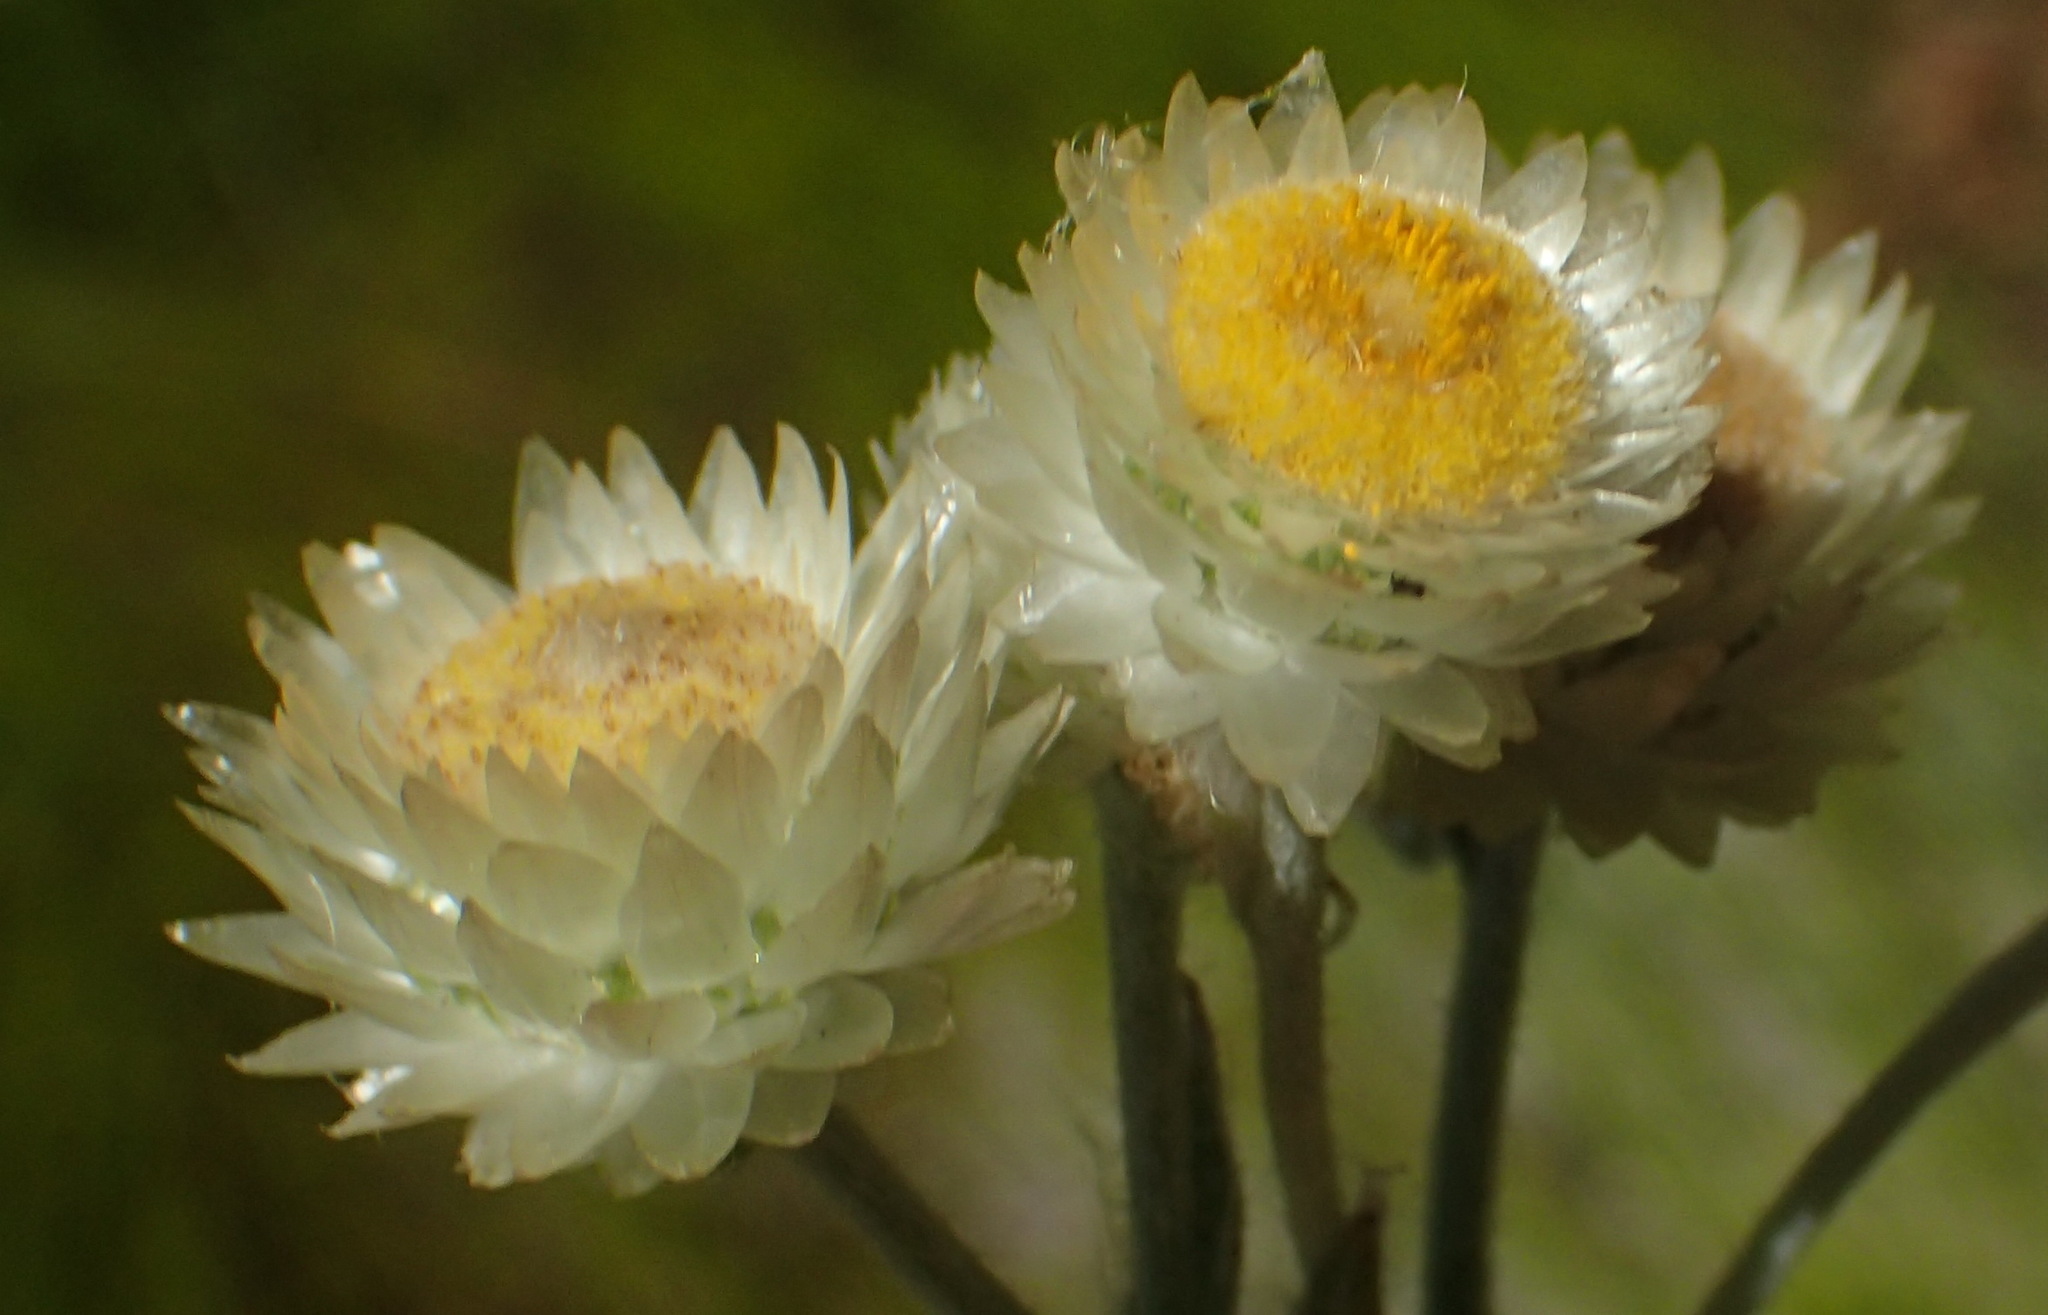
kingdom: Plantae
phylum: Tracheophyta
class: Magnoliopsida
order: Asterales
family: Asteraceae
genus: Helichrysum
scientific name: Helichrysum foetidum
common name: Stinking everlasting
